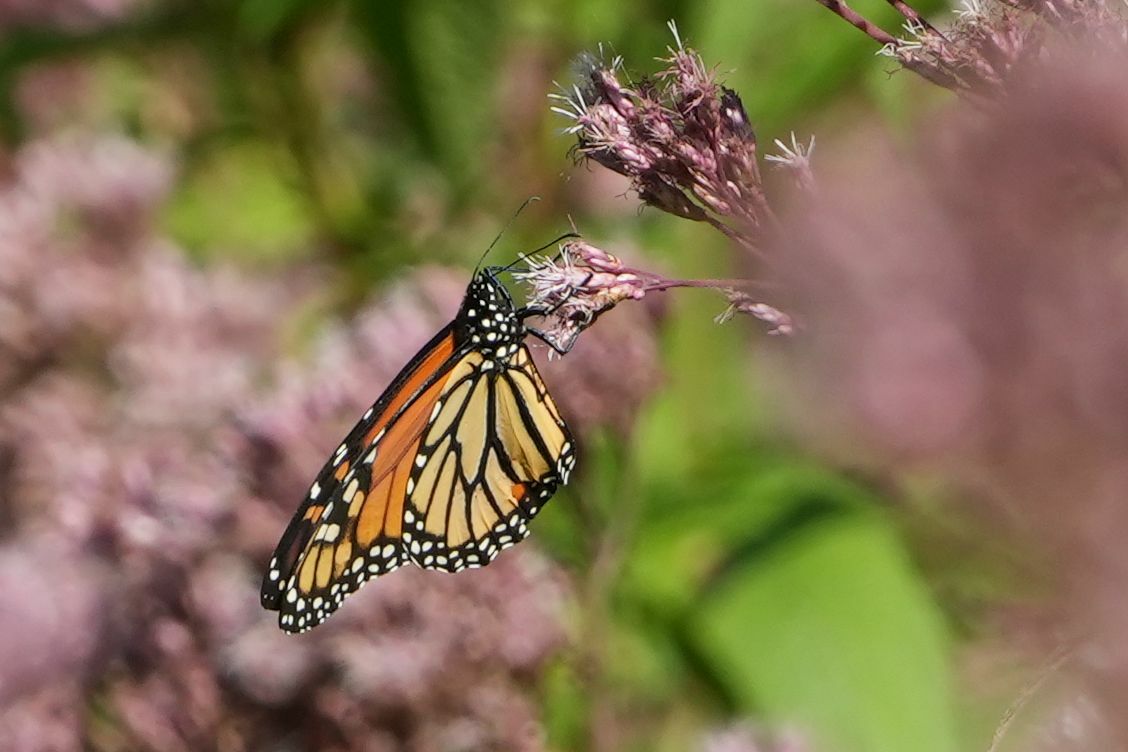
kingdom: Animalia
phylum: Arthropoda
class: Insecta
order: Lepidoptera
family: Nymphalidae
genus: Danaus
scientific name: Danaus plexippus
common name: Monarch
